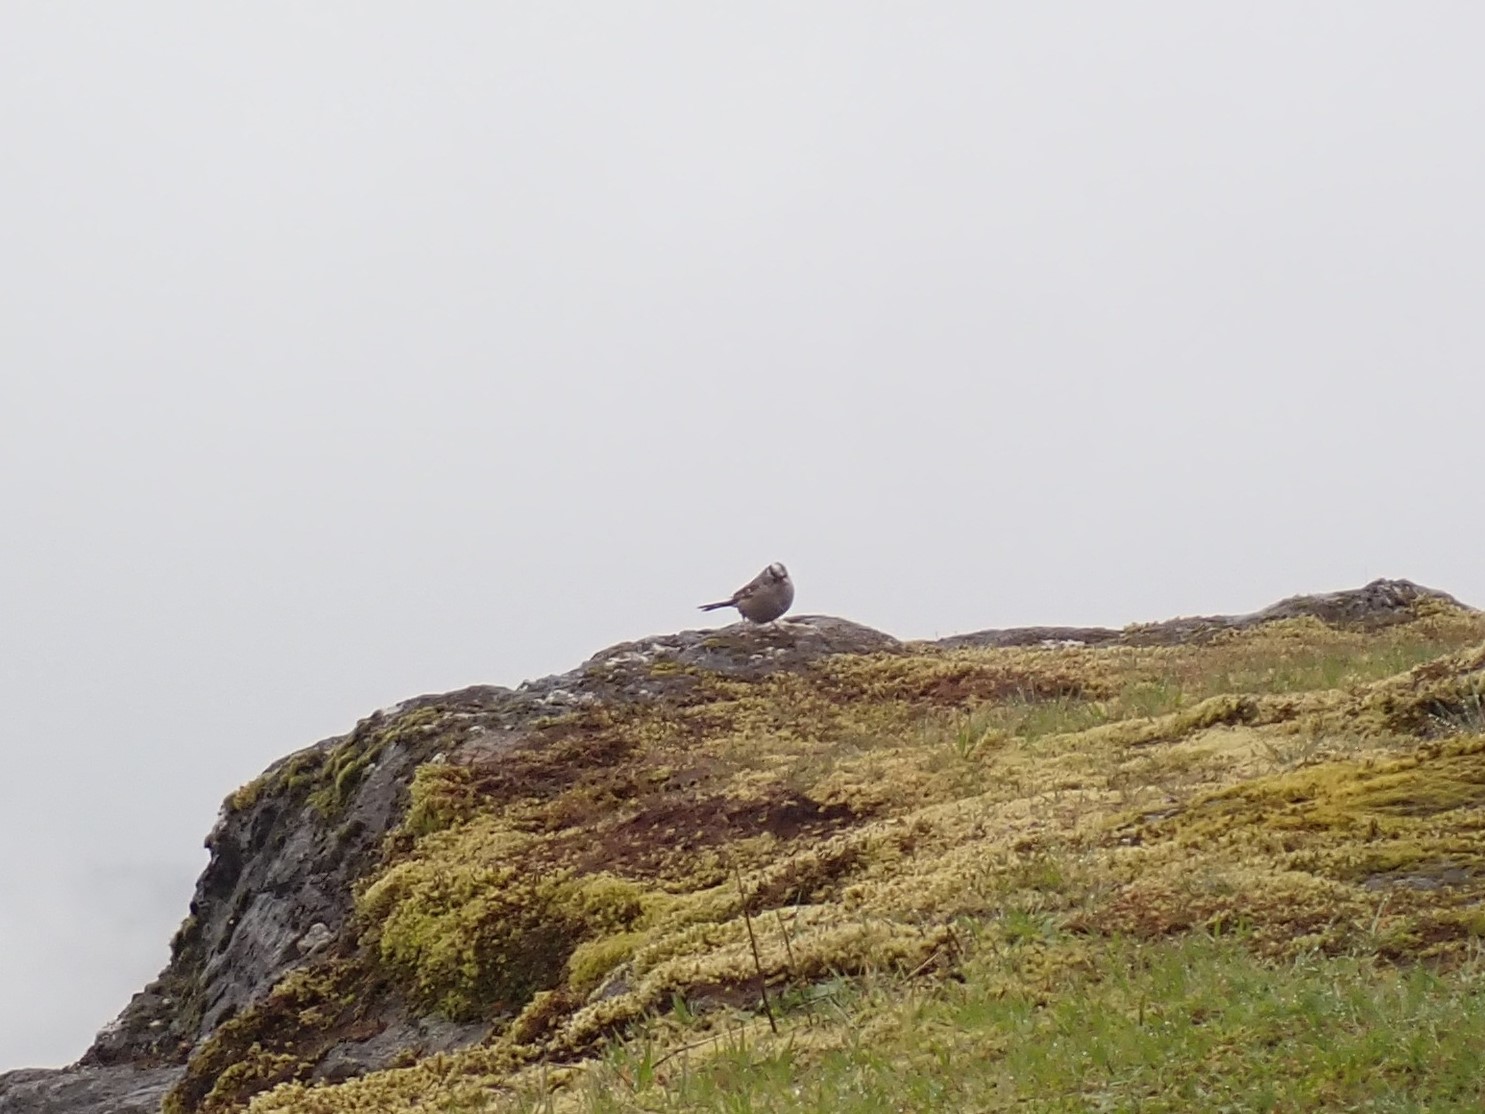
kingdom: Animalia
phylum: Chordata
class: Aves
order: Passeriformes
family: Passerellidae
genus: Zonotrichia
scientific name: Zonotrichia leucophrys
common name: White-crowned sparrow
